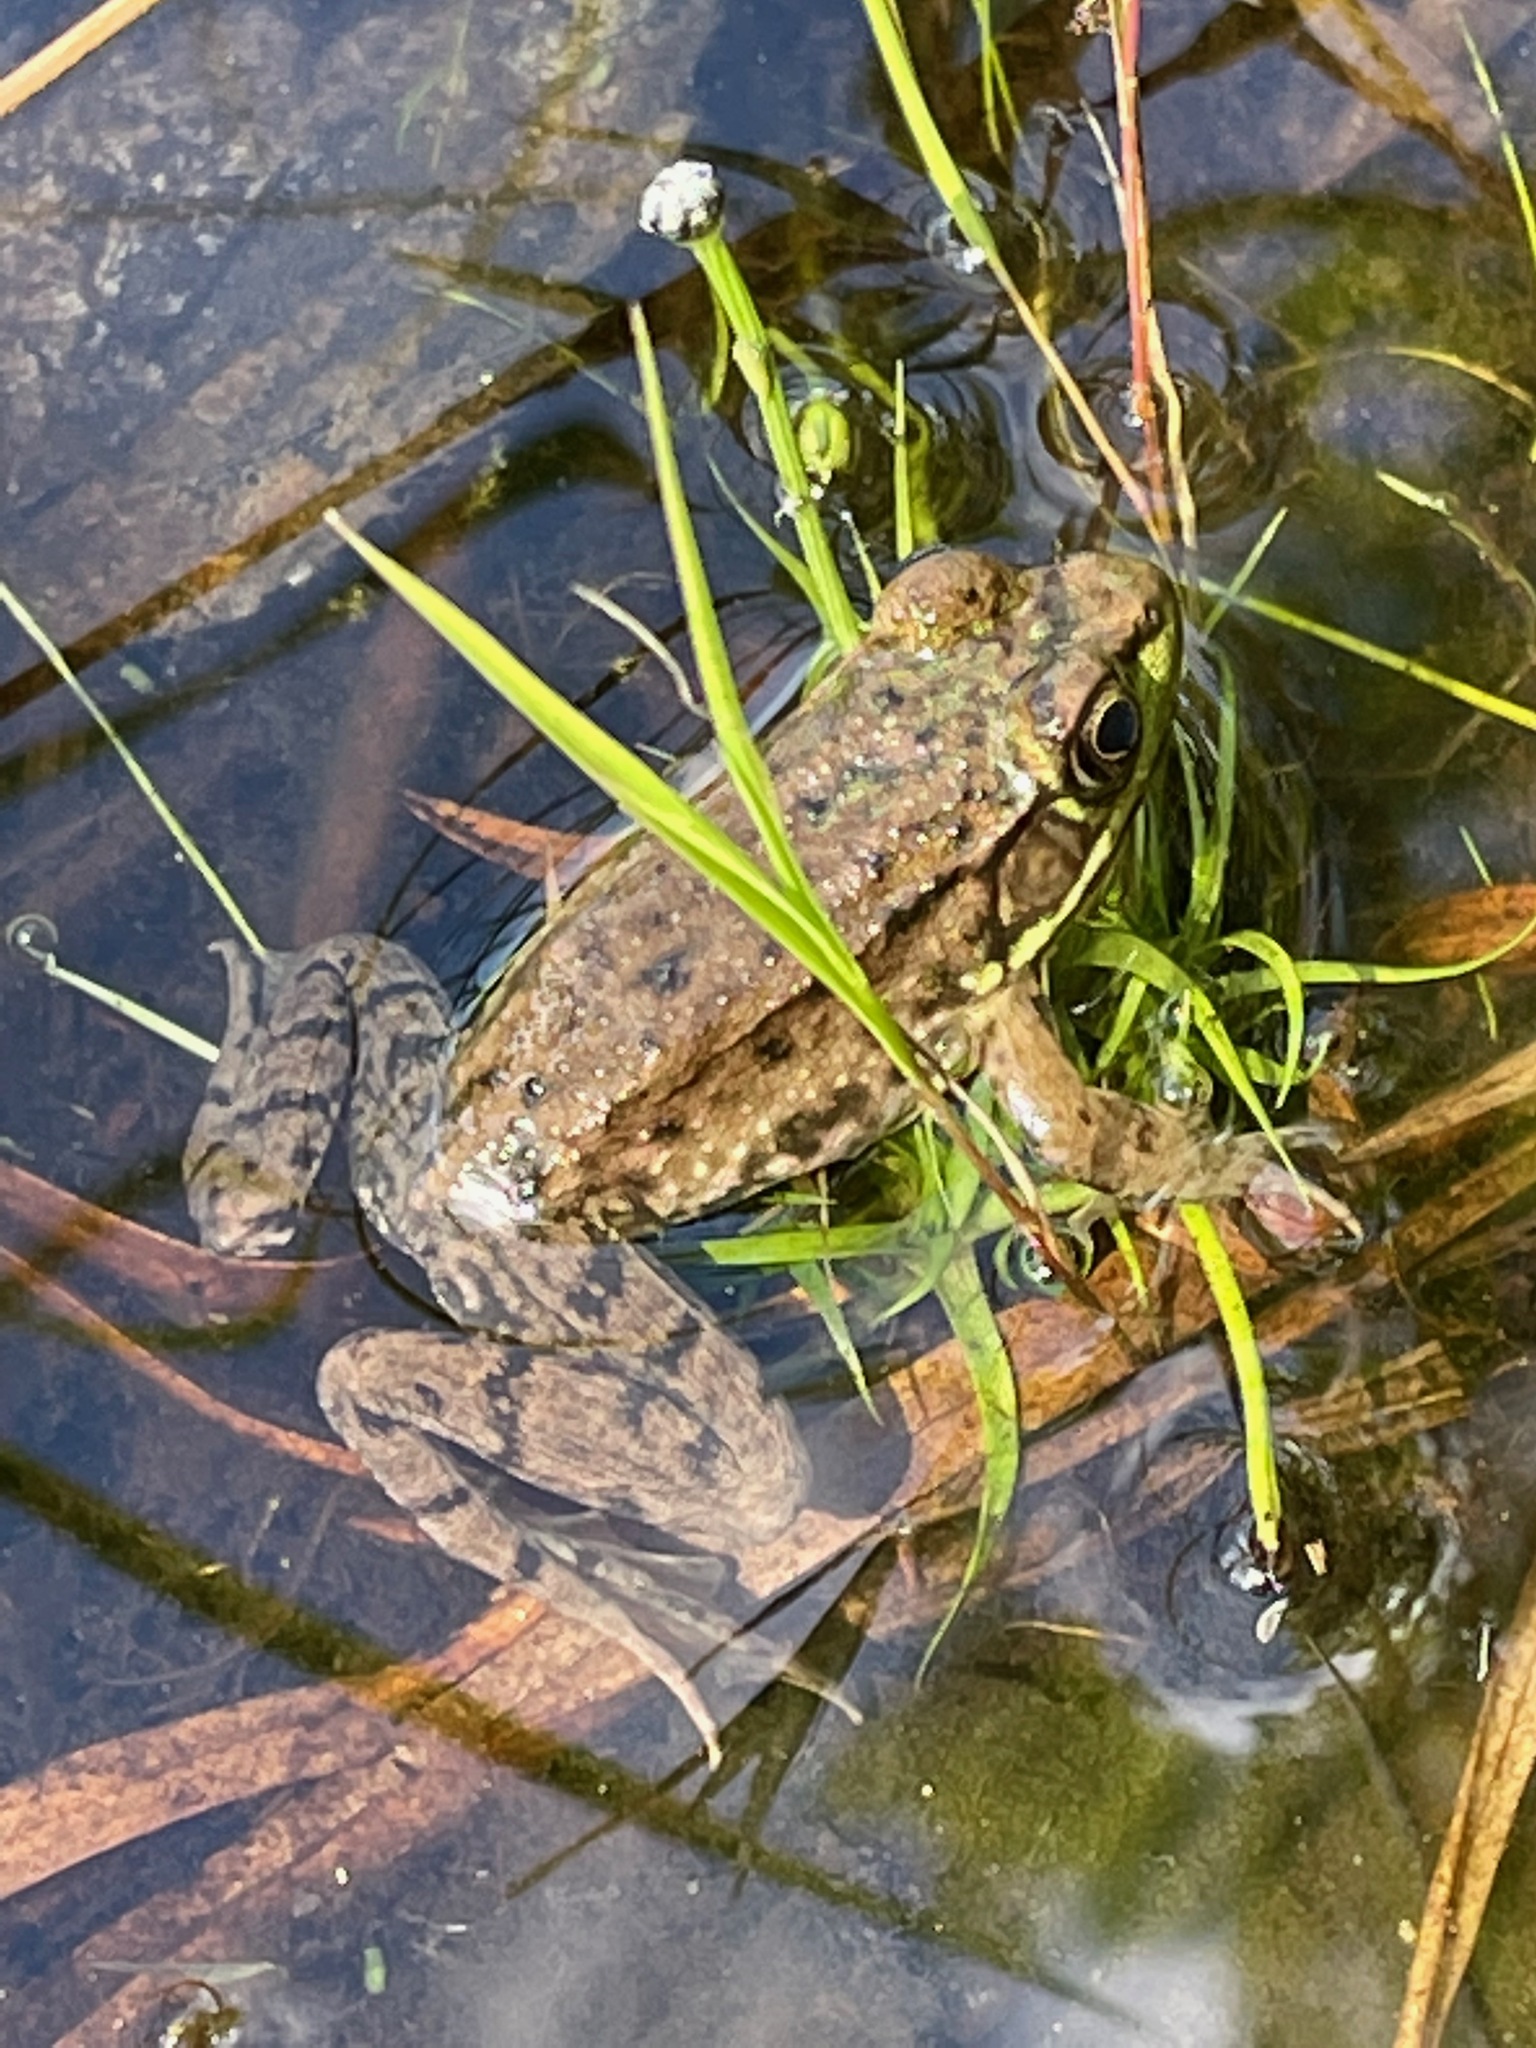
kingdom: Animalia
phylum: Chordata
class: Amphibia
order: Anura
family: Ranidae
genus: Lithobates
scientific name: Lithobates clamitans
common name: Green frog
